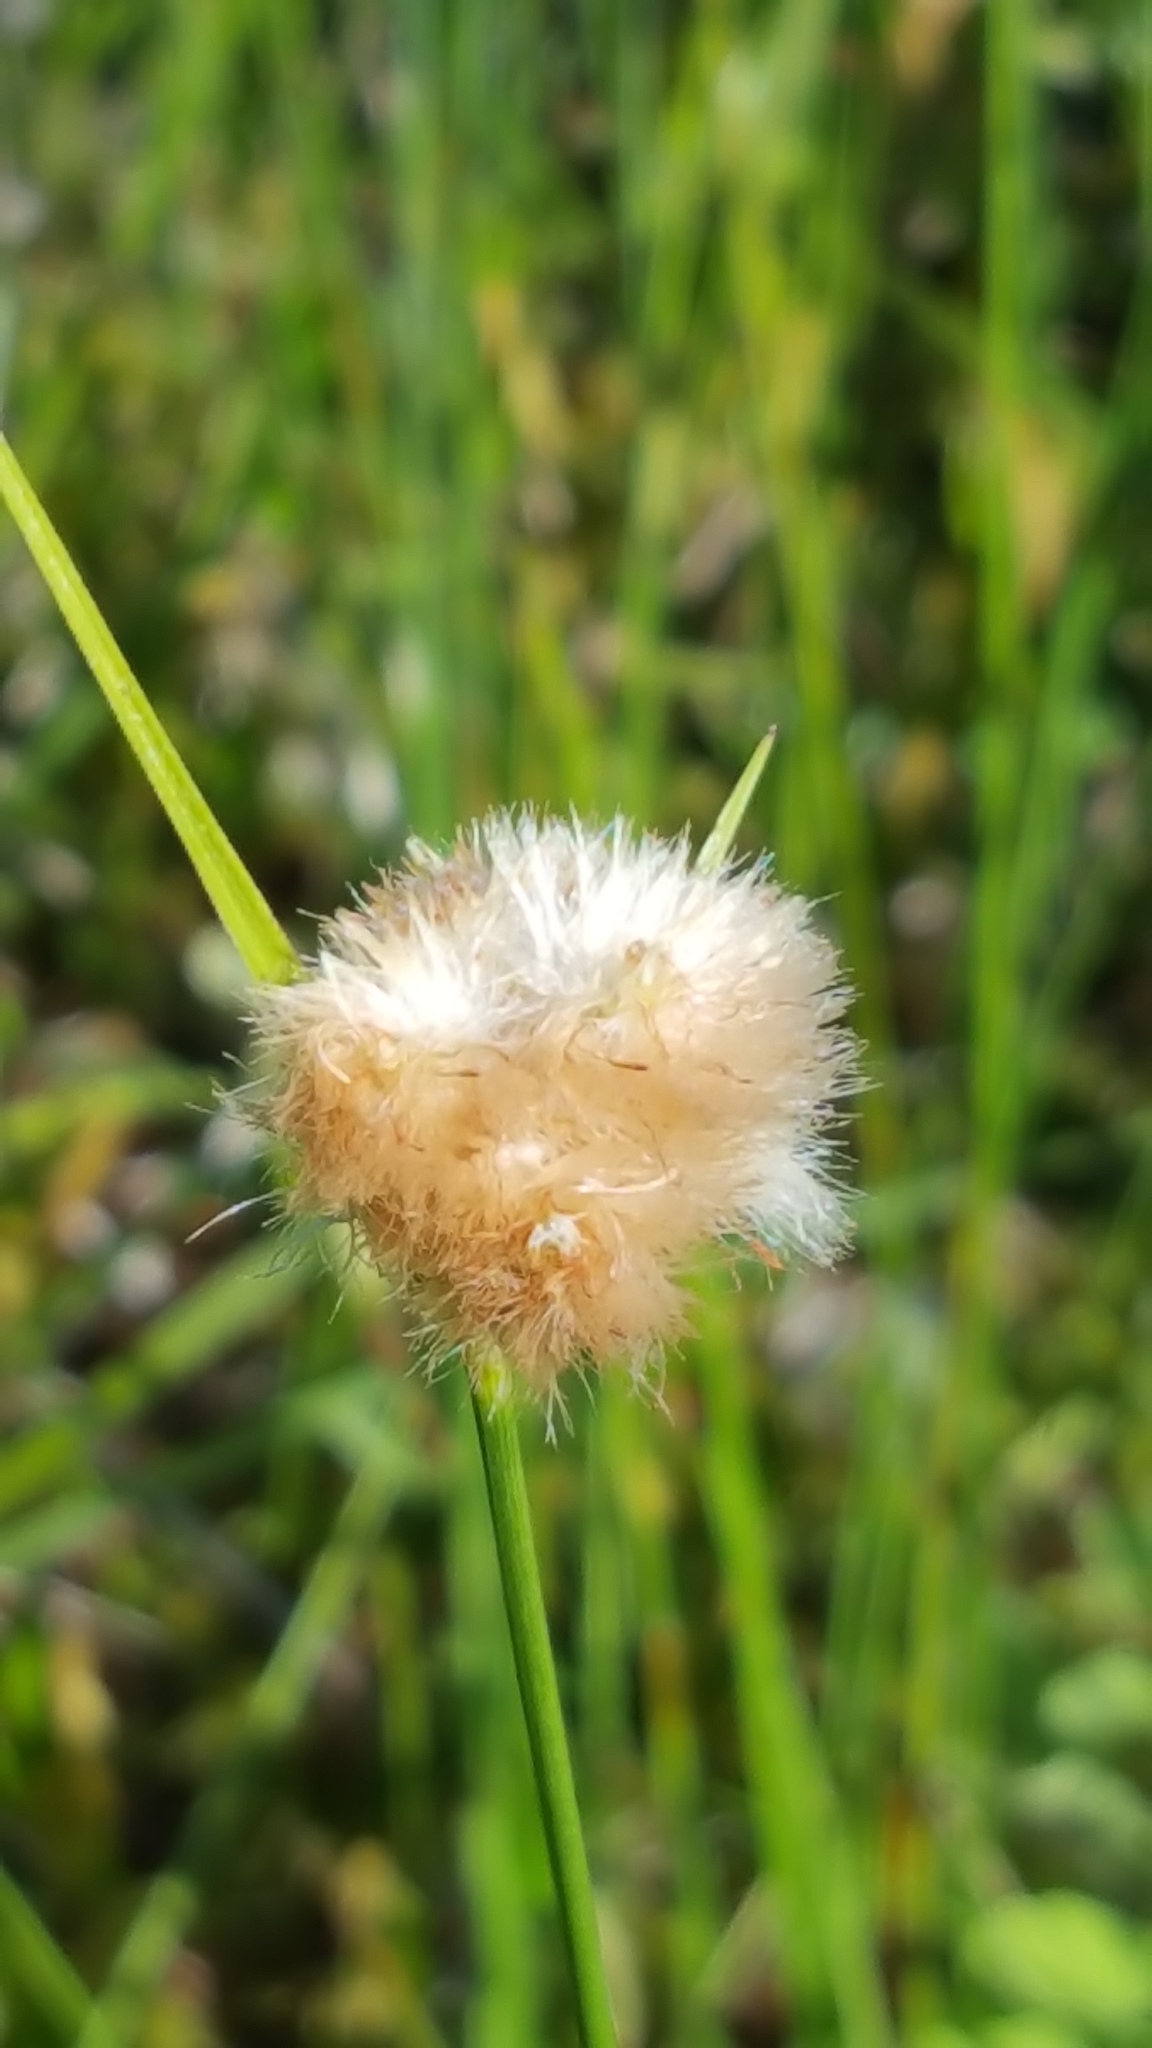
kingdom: Plantae
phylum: Tracheophyta
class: Liliopsida
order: Poales
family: Cyperaceae
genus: Eriophorum
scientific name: Eriophorum virginicum
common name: Tawny cottongrass
